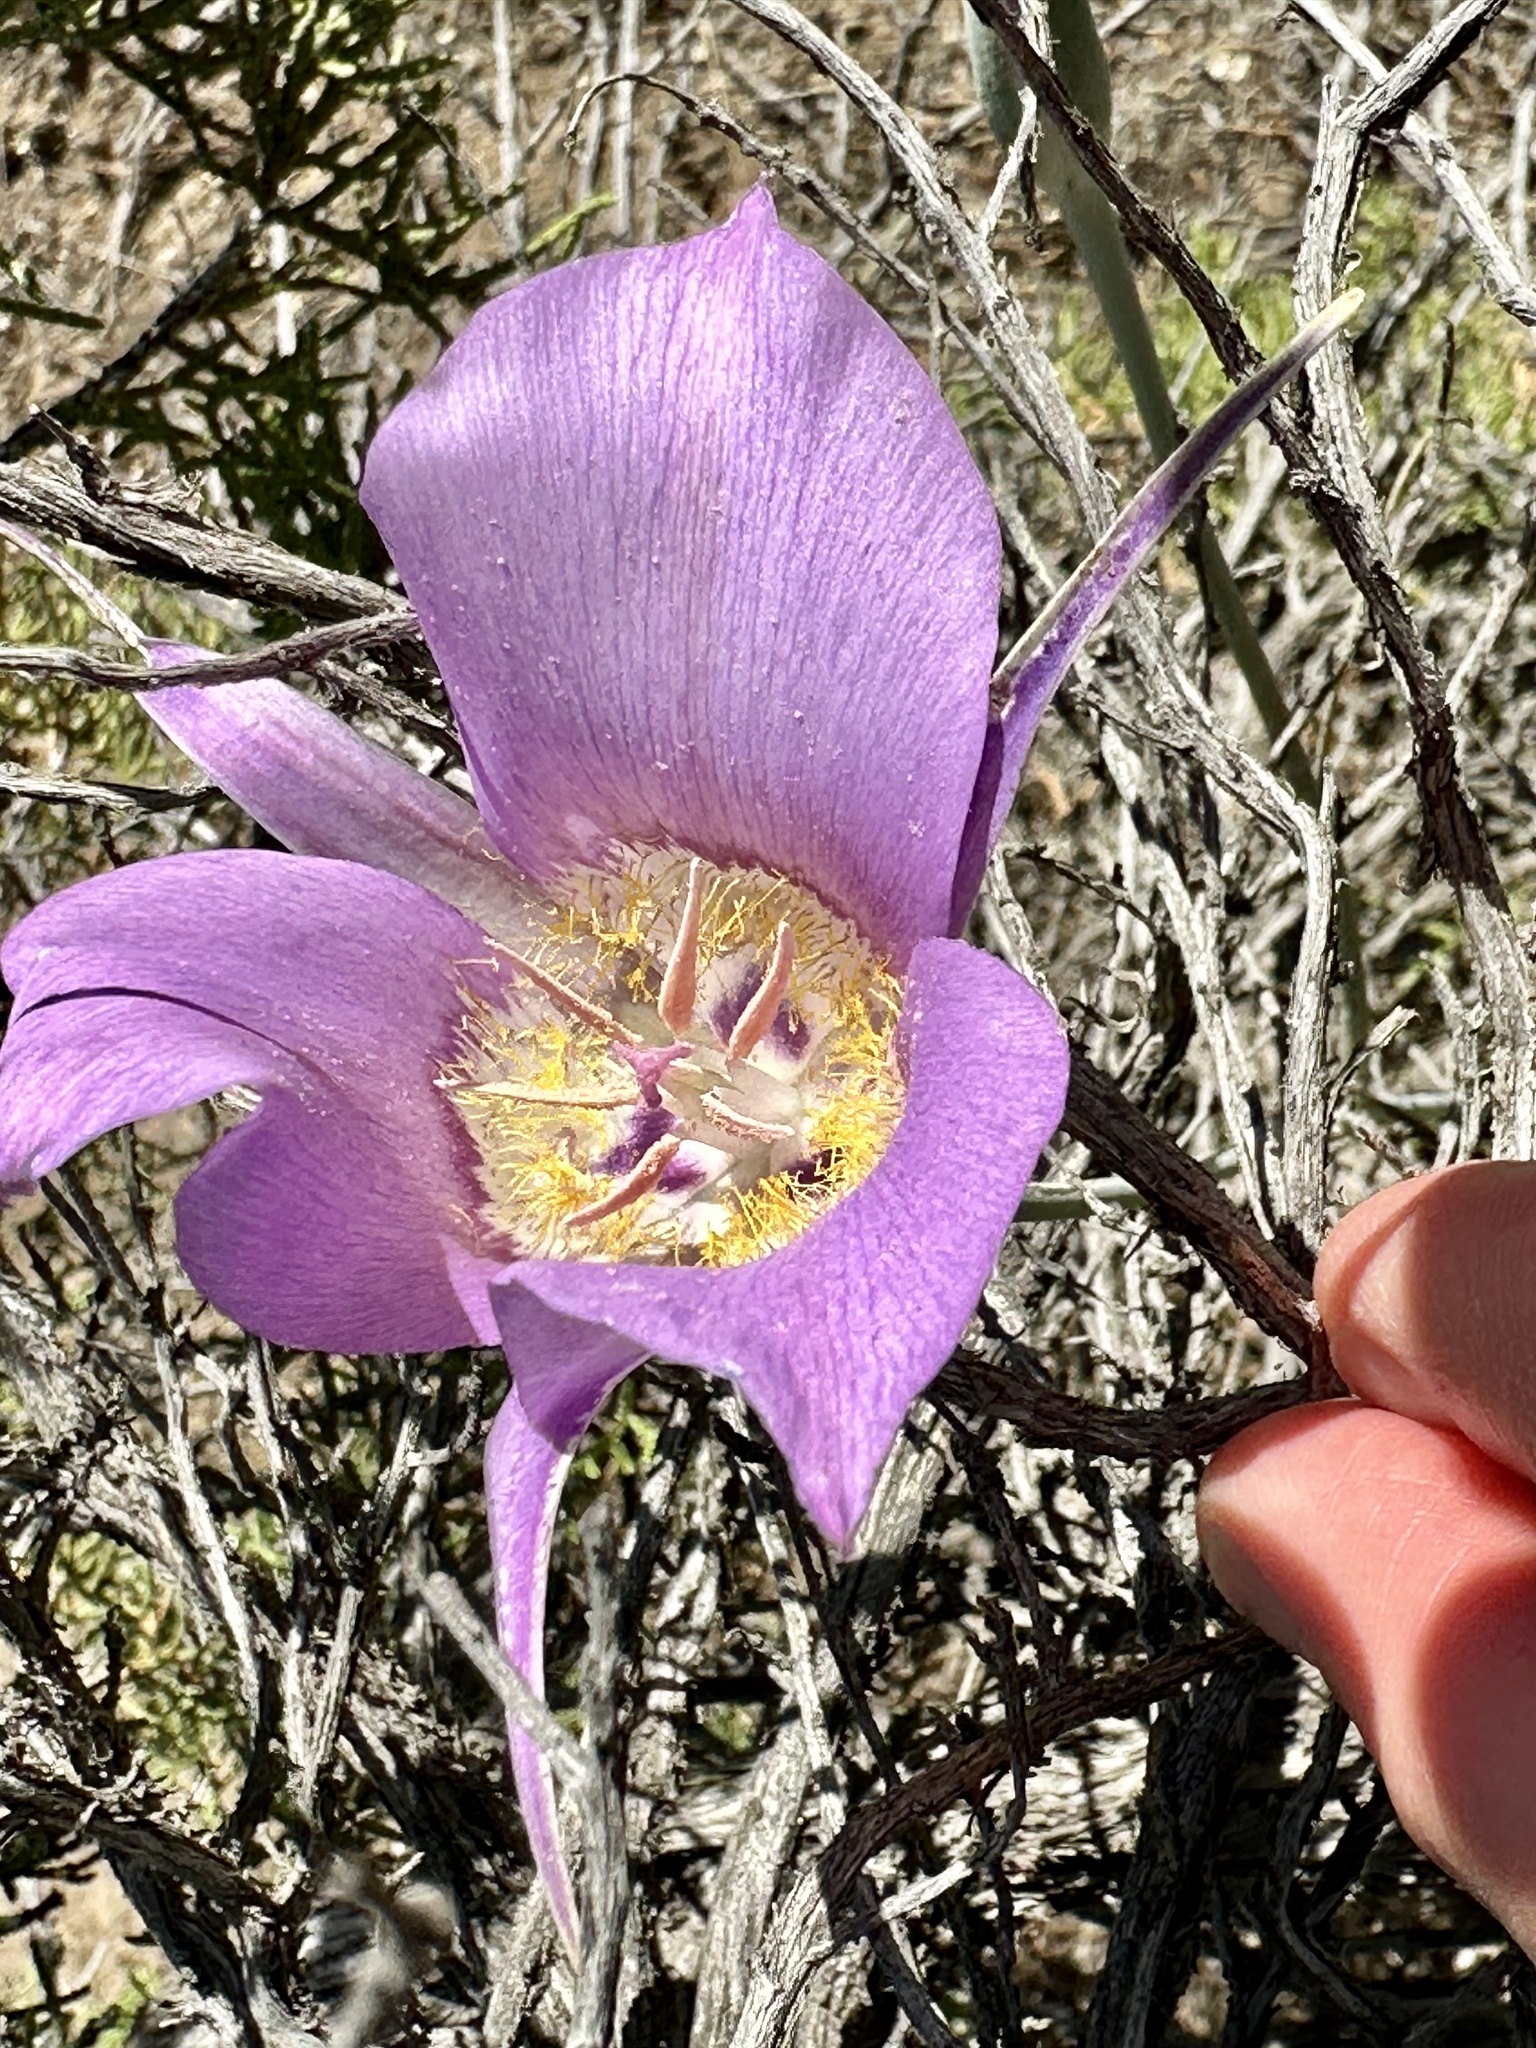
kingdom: Plantae
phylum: Tracheophyta
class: Liliopsida
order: Liliales
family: Liliaceae
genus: Calochortus
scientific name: Calochortus macrocarpus
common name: Green-band mariposa lily
